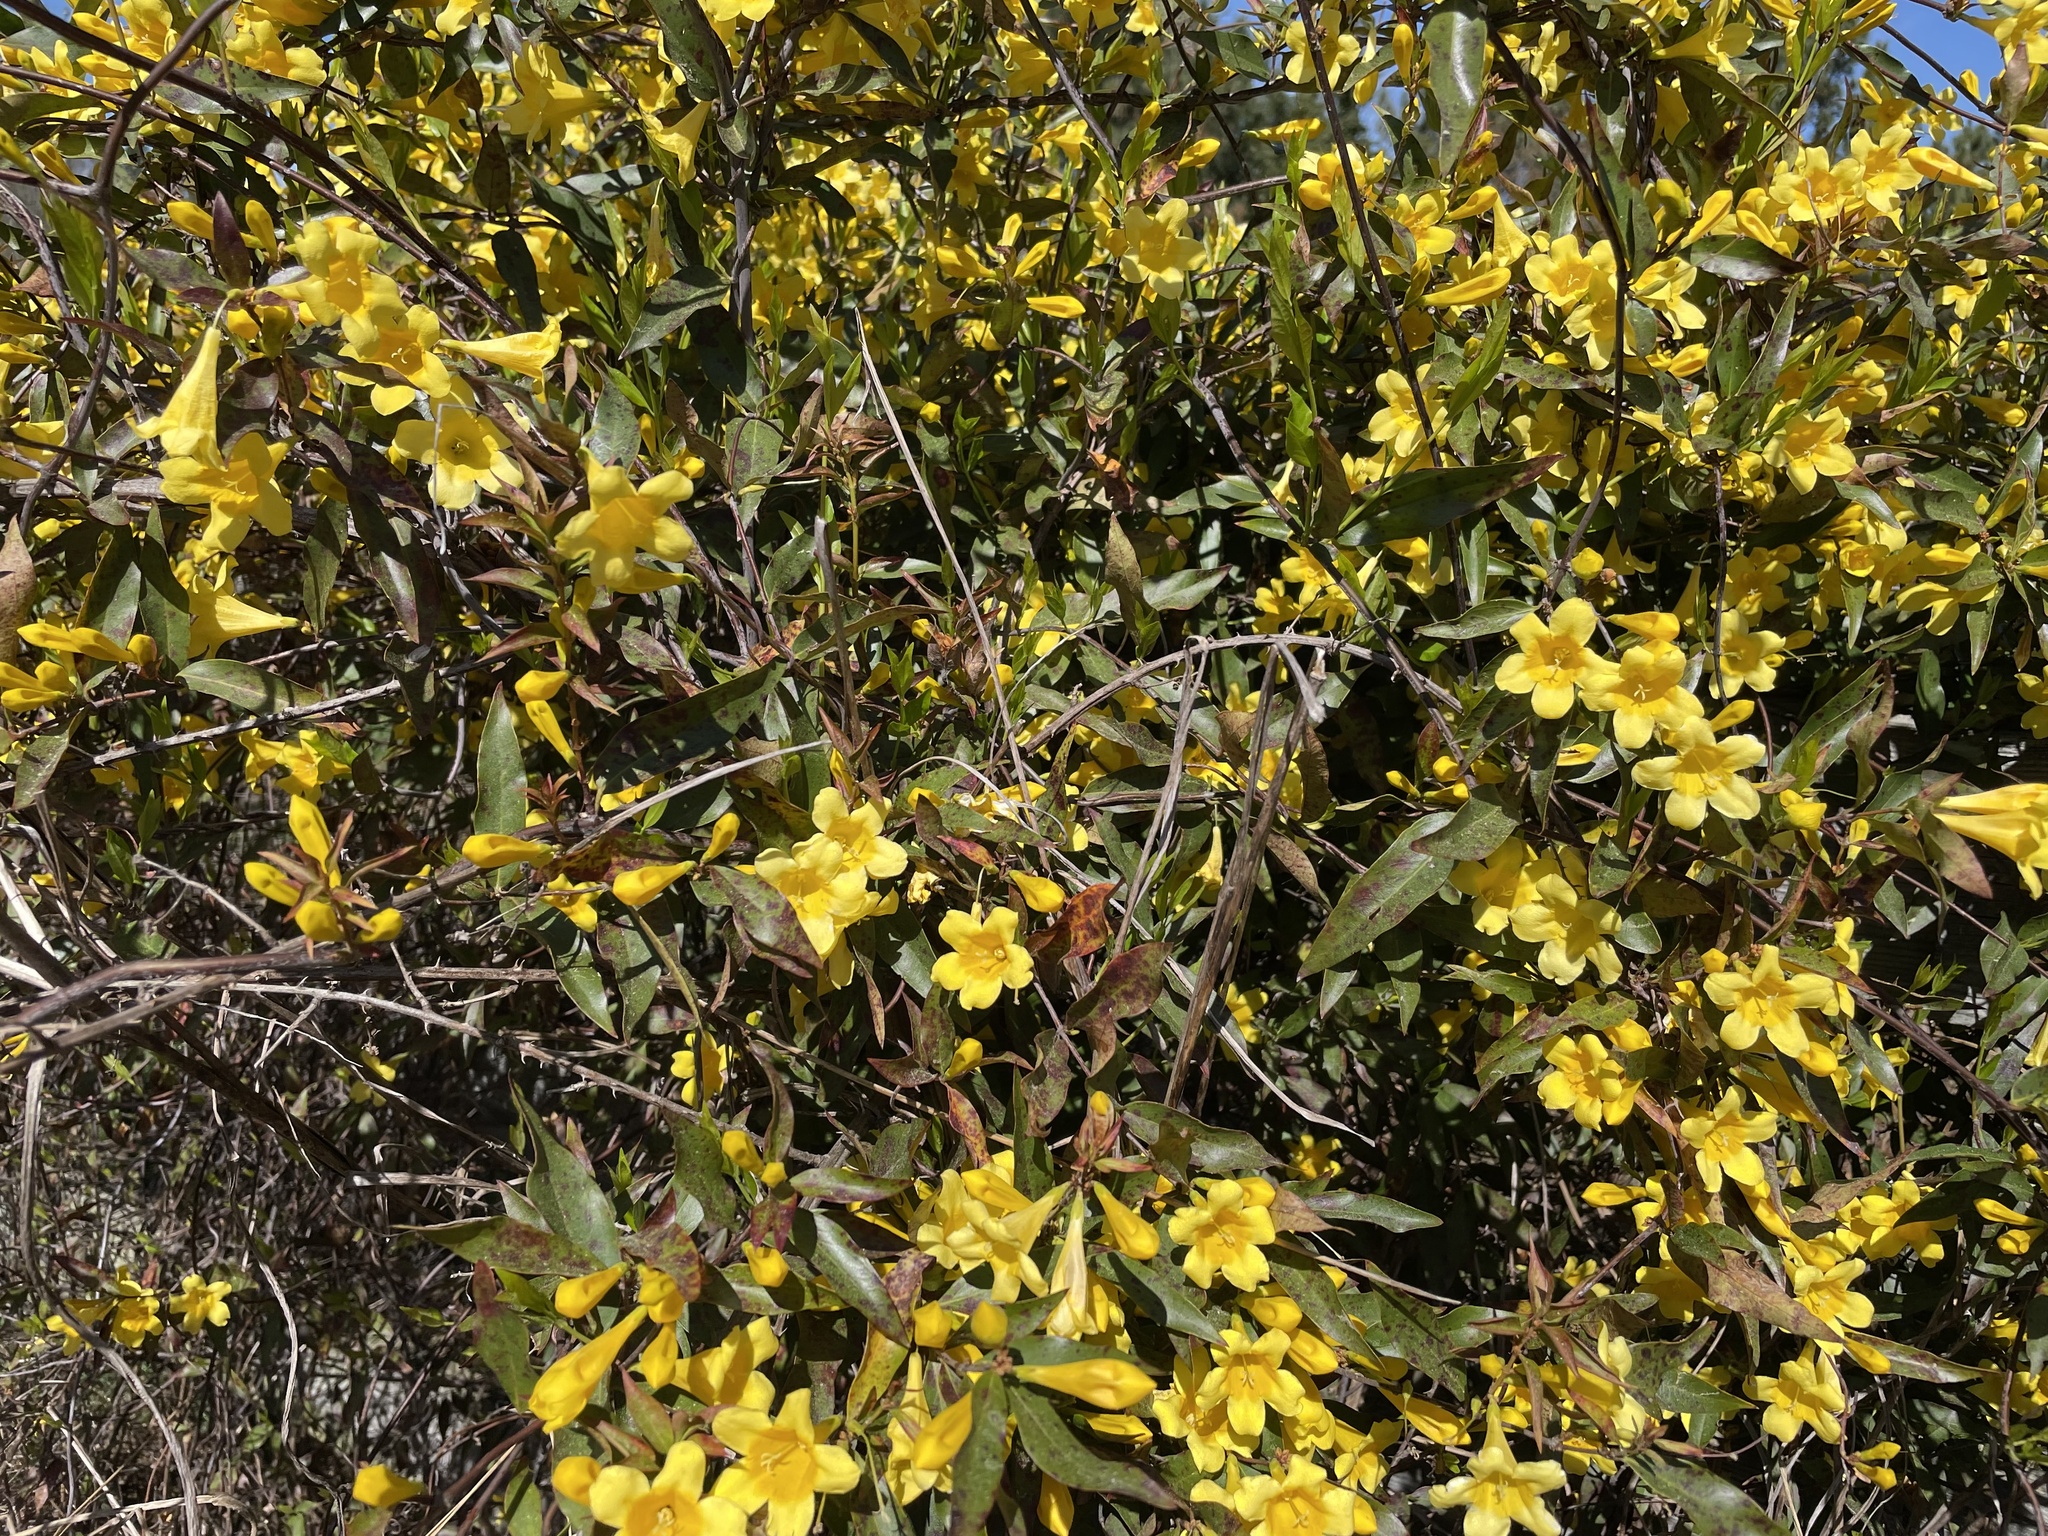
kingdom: Plantae
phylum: Tracheophyta
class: Magnoliopsida
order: Gentianales
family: Gelsemiaceae
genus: Gelsemium
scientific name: Gelsemium sempervirens
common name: Carolina-jasmine
